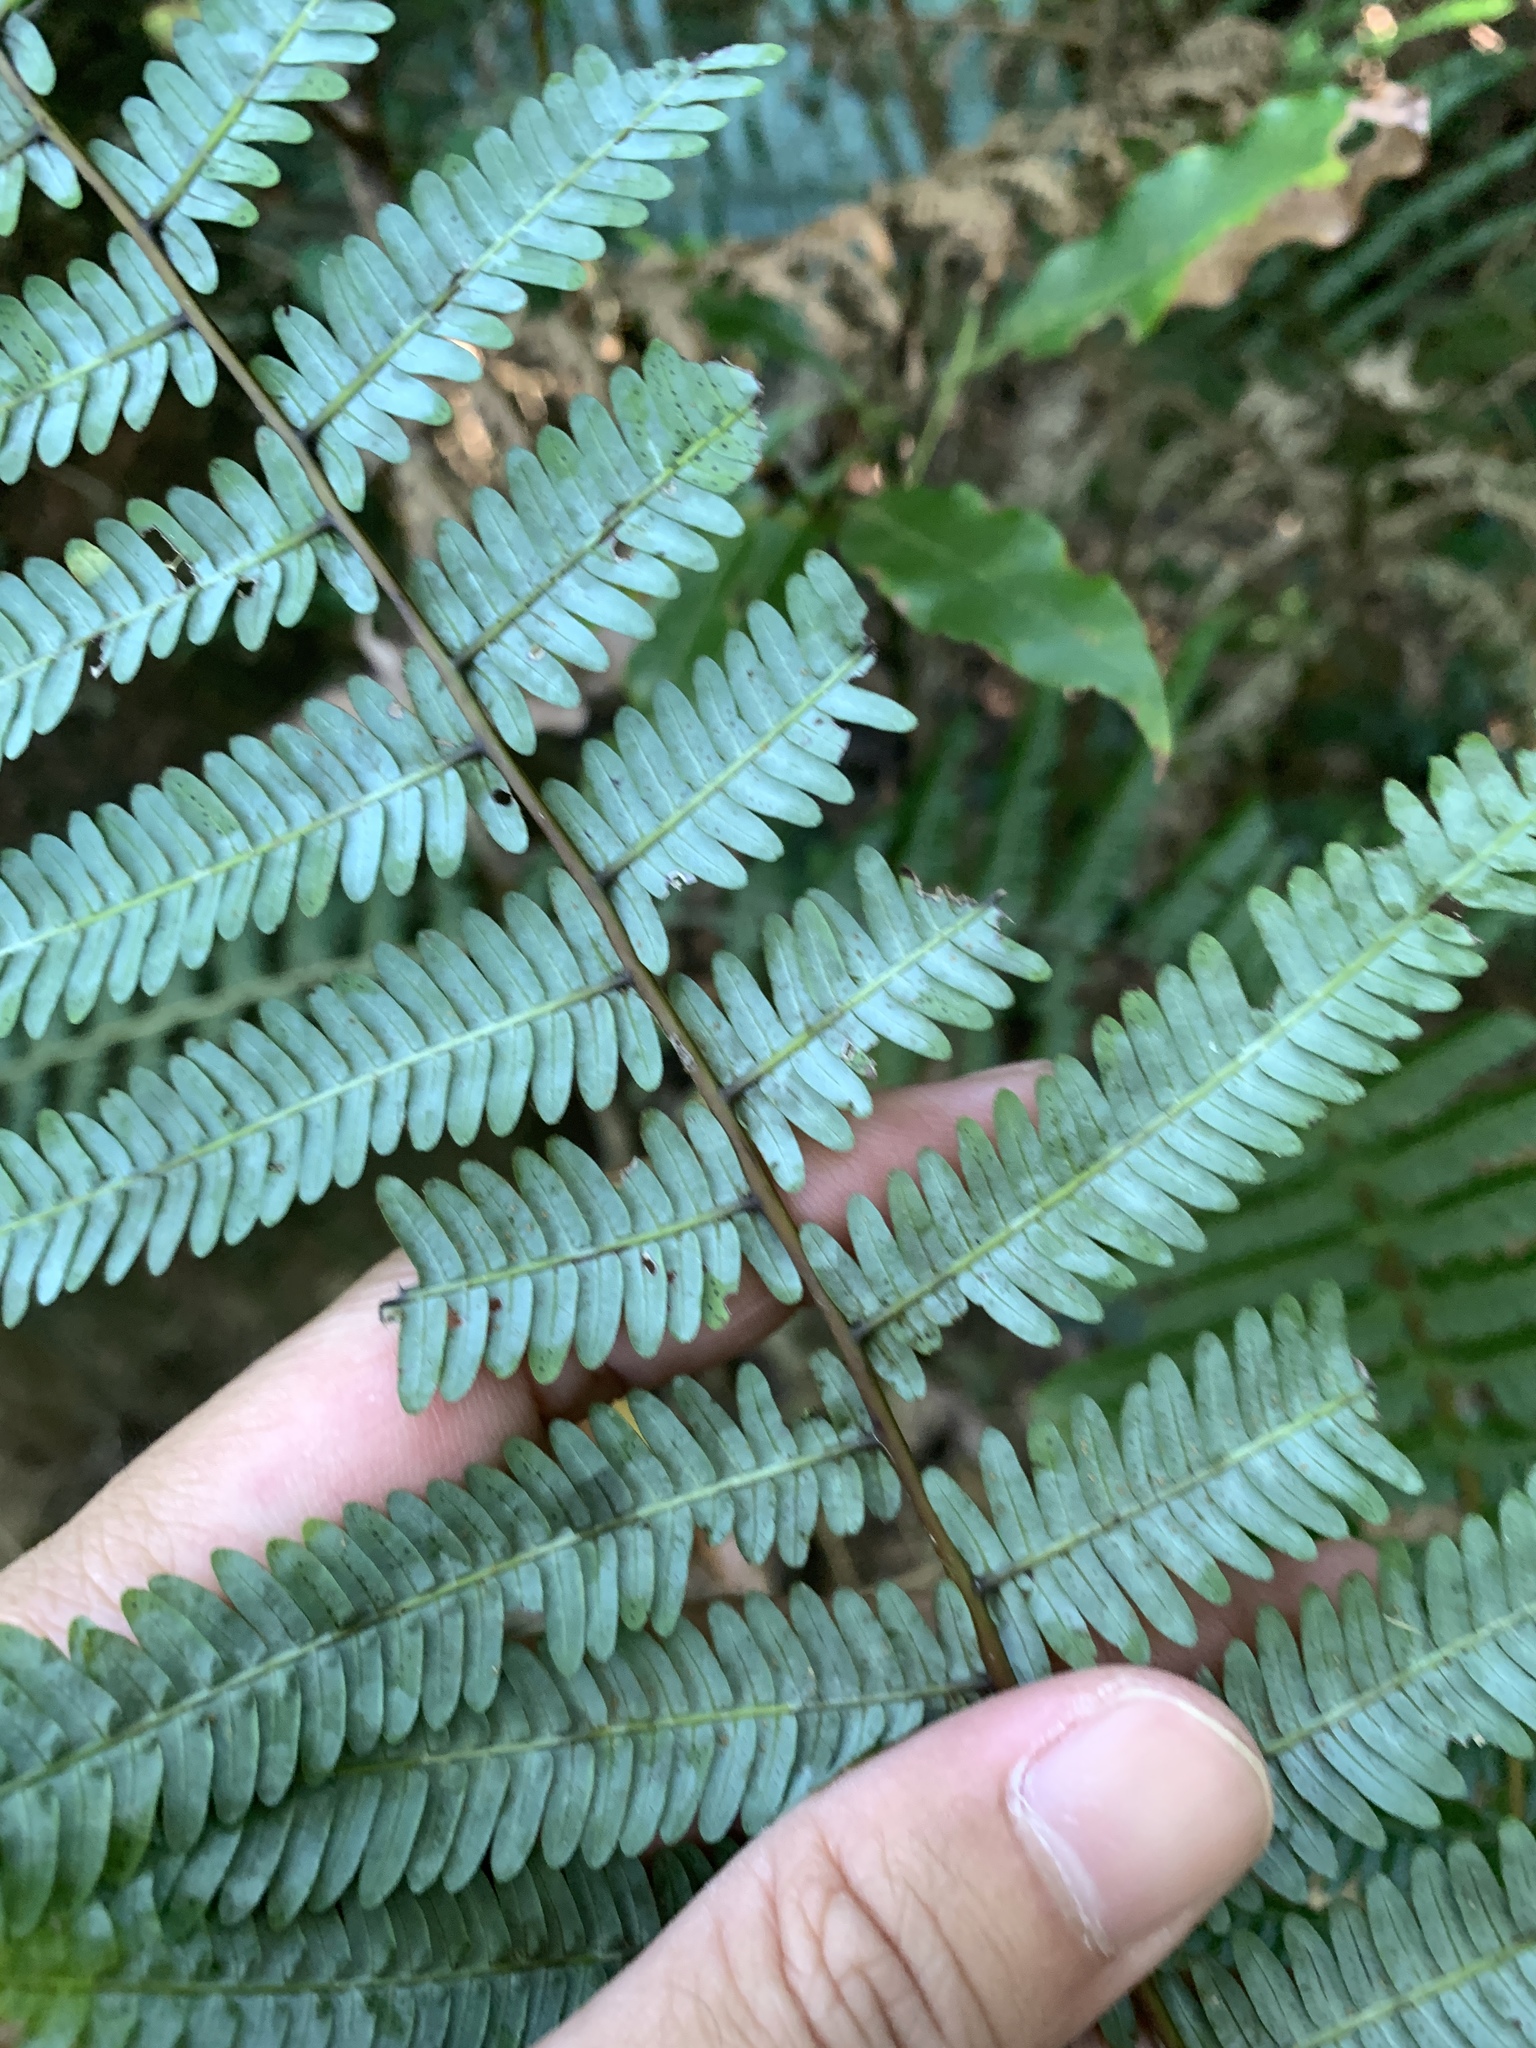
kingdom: Plantae
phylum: Tracheophyta
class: Polypodiopsida
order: Gleicheniales
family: Gleicheniaceae
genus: Diplopterygium
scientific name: Diplopterygium glaucum
